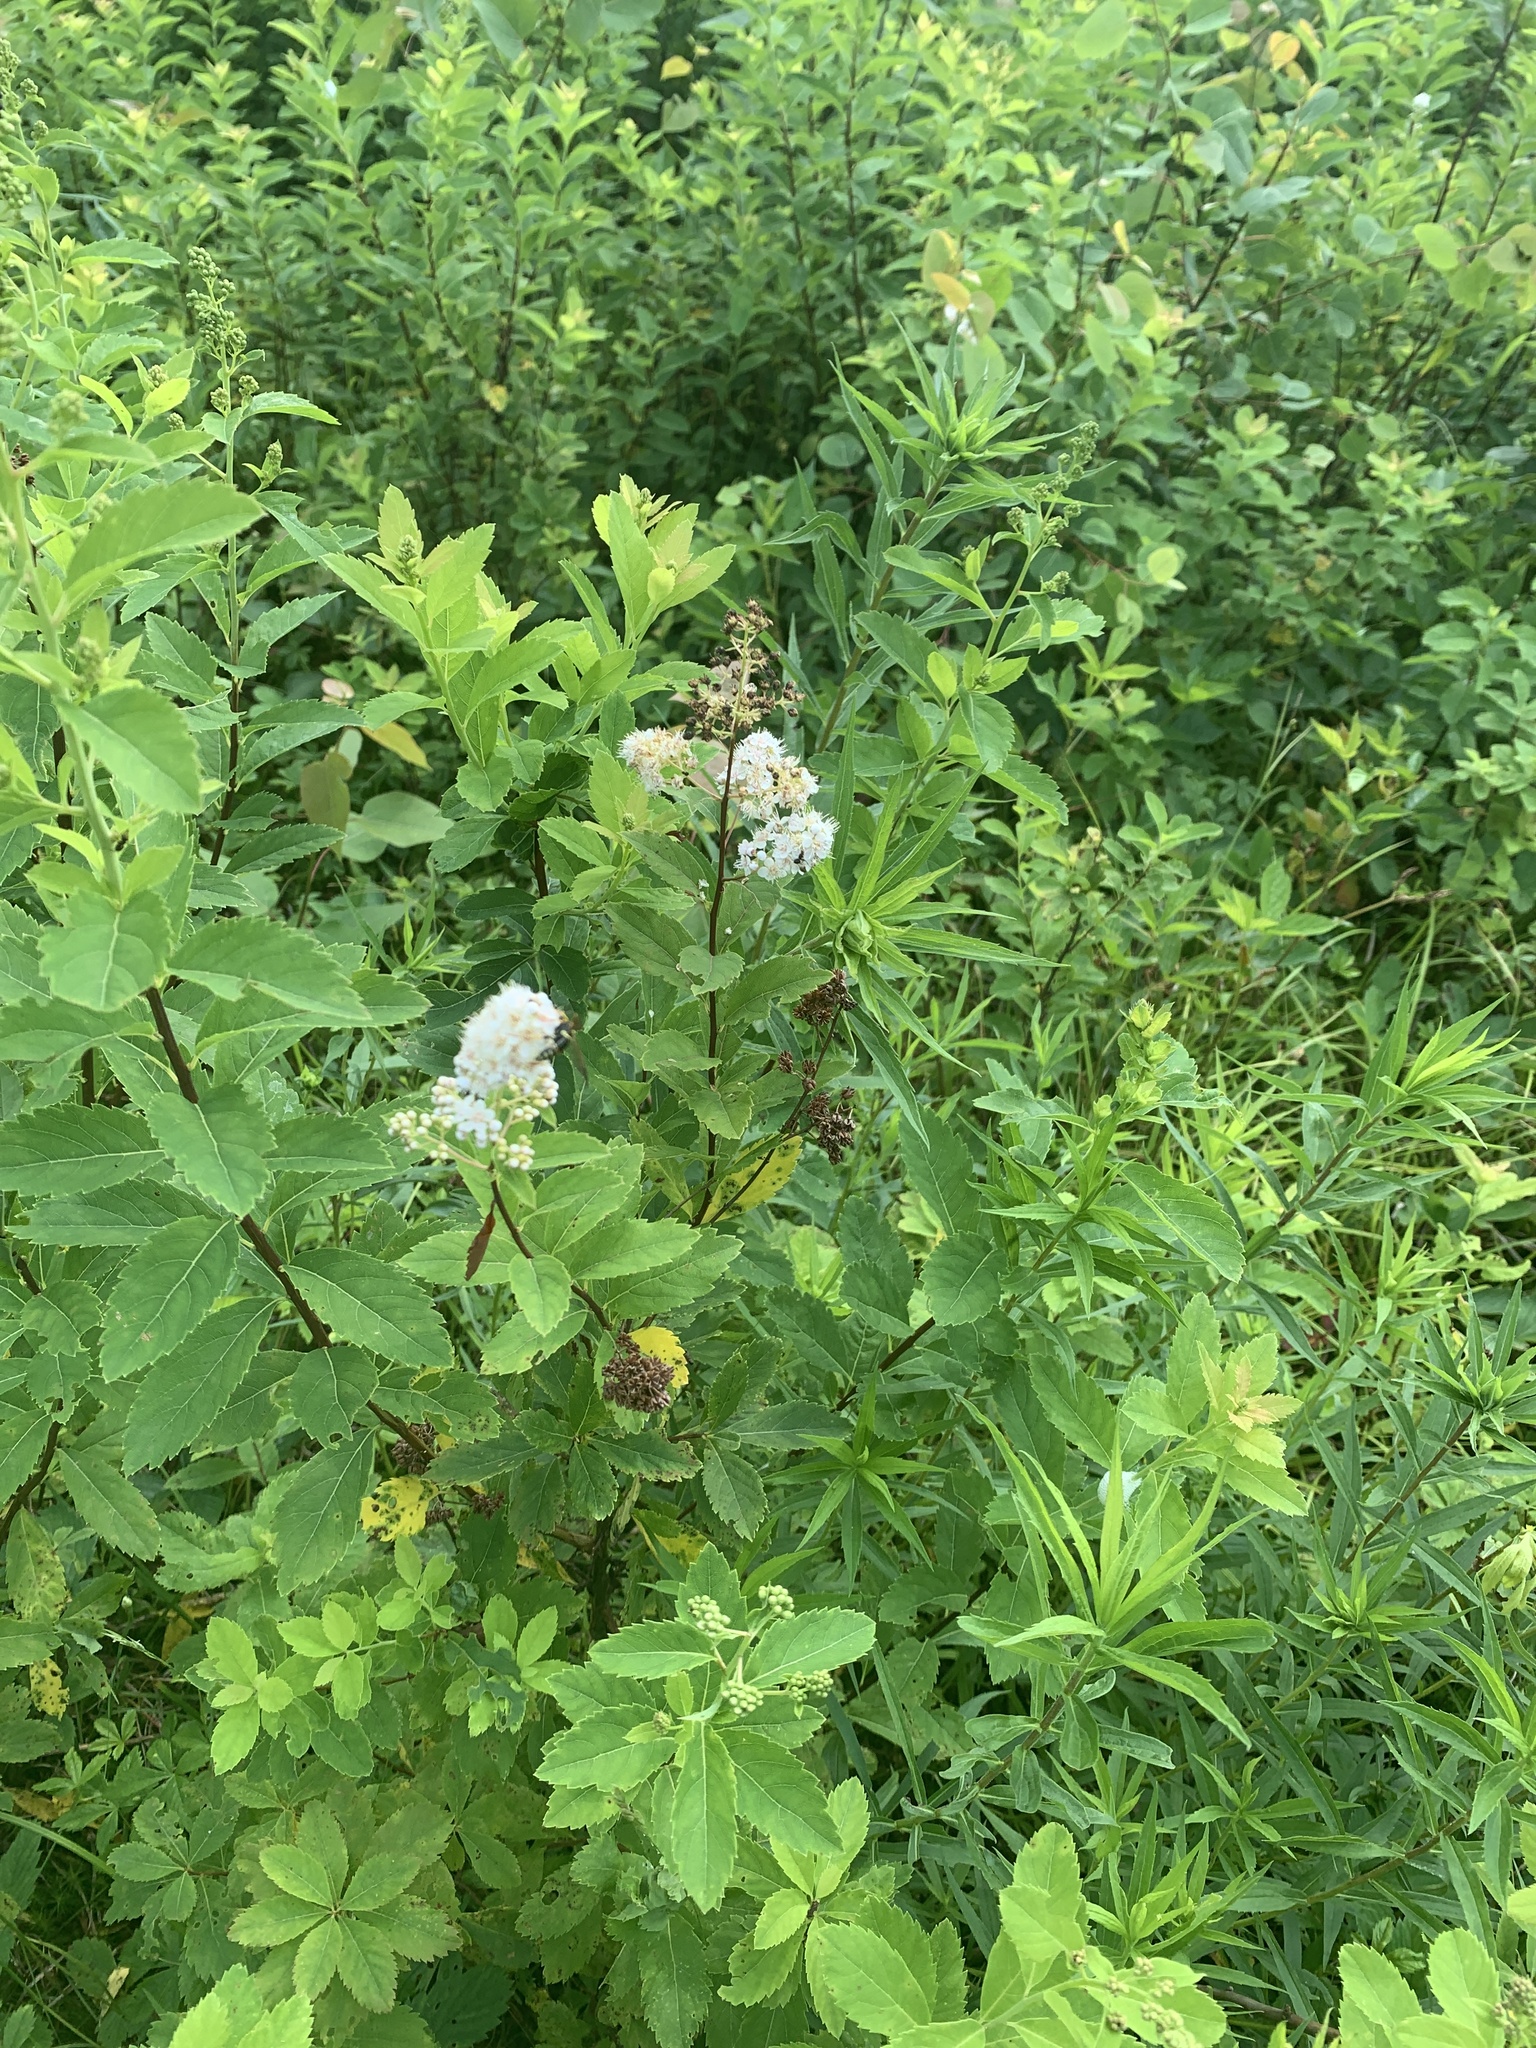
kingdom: Plantae
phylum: Tracheophyta
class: Magnoliopsida
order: Rosales
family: Rosaceae
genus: Spiraea
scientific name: Spiraea alba
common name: Pale bridewort
